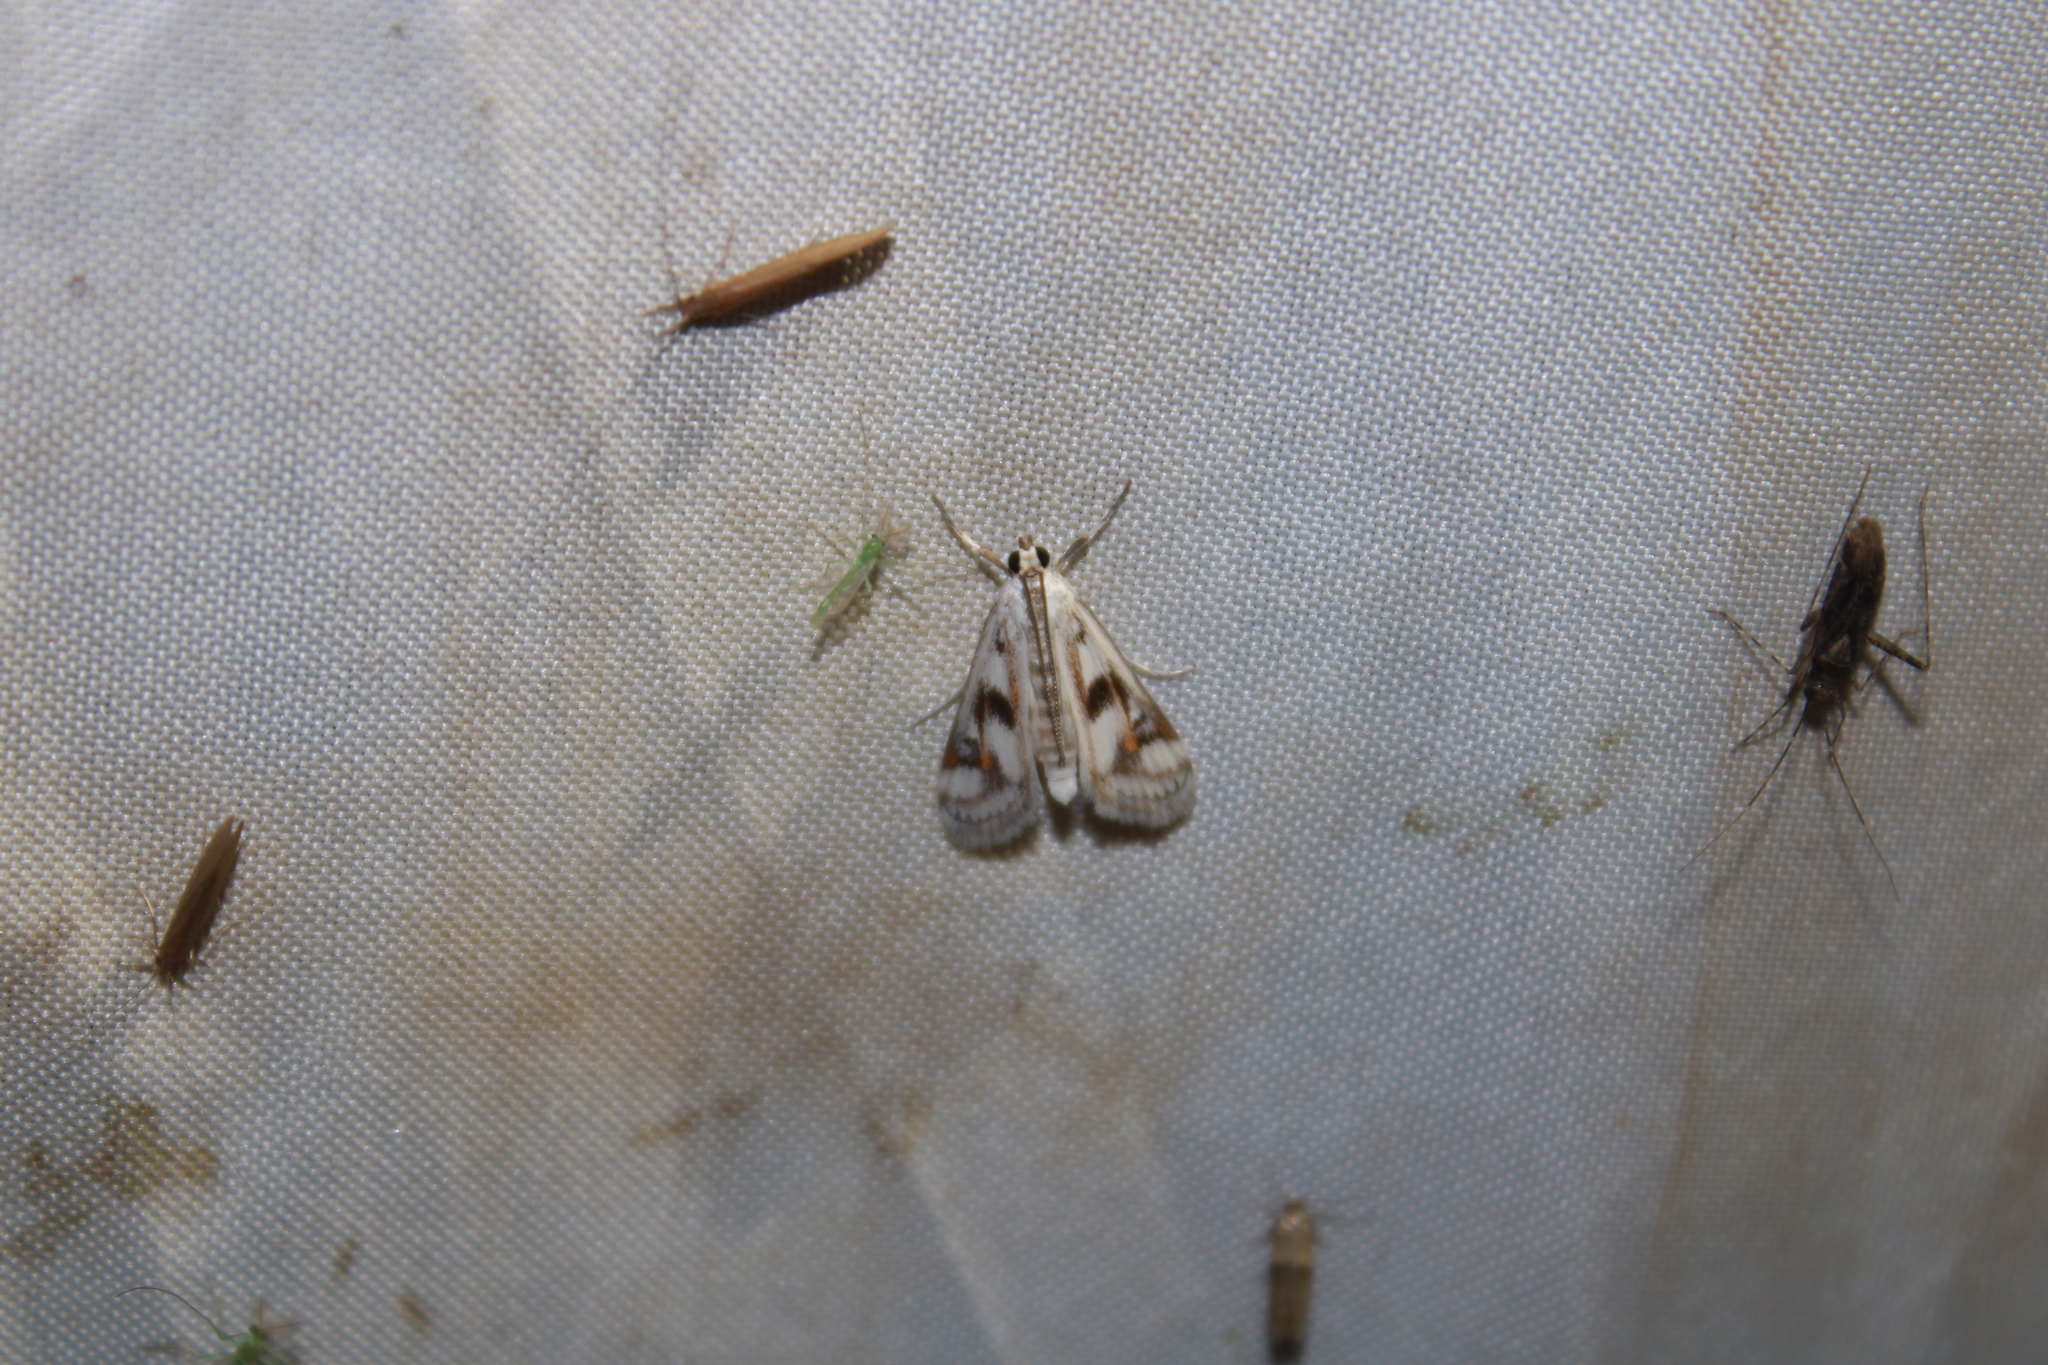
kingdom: Animalia
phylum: Arthropoda
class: Insecta
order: Lepidoptera
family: Crambidae
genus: Parapoynx
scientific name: Parapoynx maculalis
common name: Polymorphic pondweed moth
